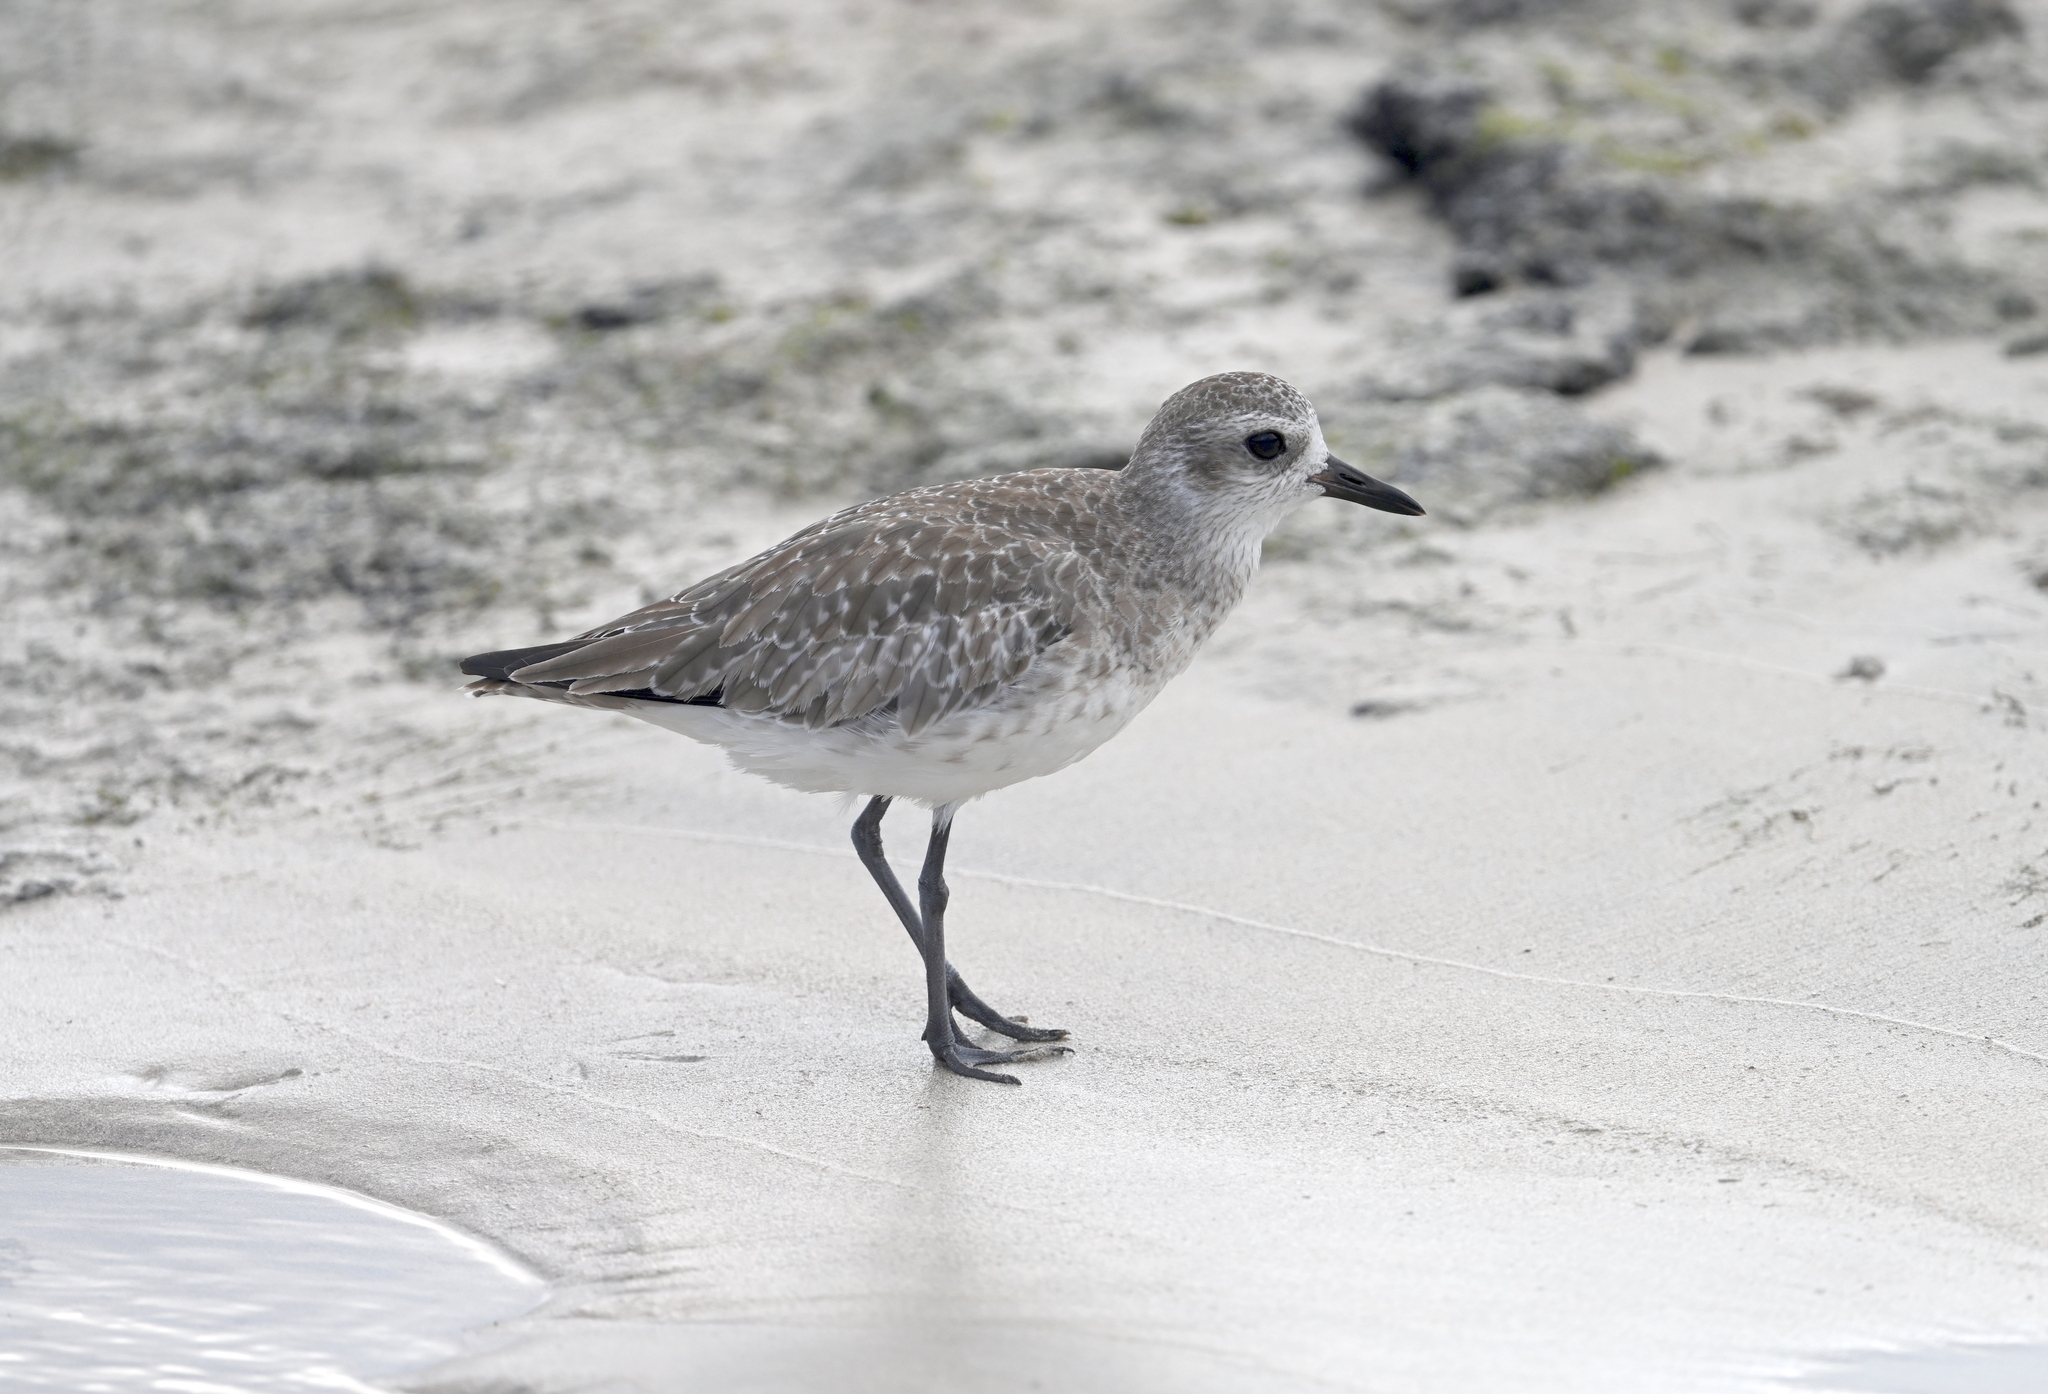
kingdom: Animalia
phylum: Chordata
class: Aves
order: Charadriiformes
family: Charadriidae
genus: Pluvialis
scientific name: Pluvialis squatarola
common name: Grey plover
